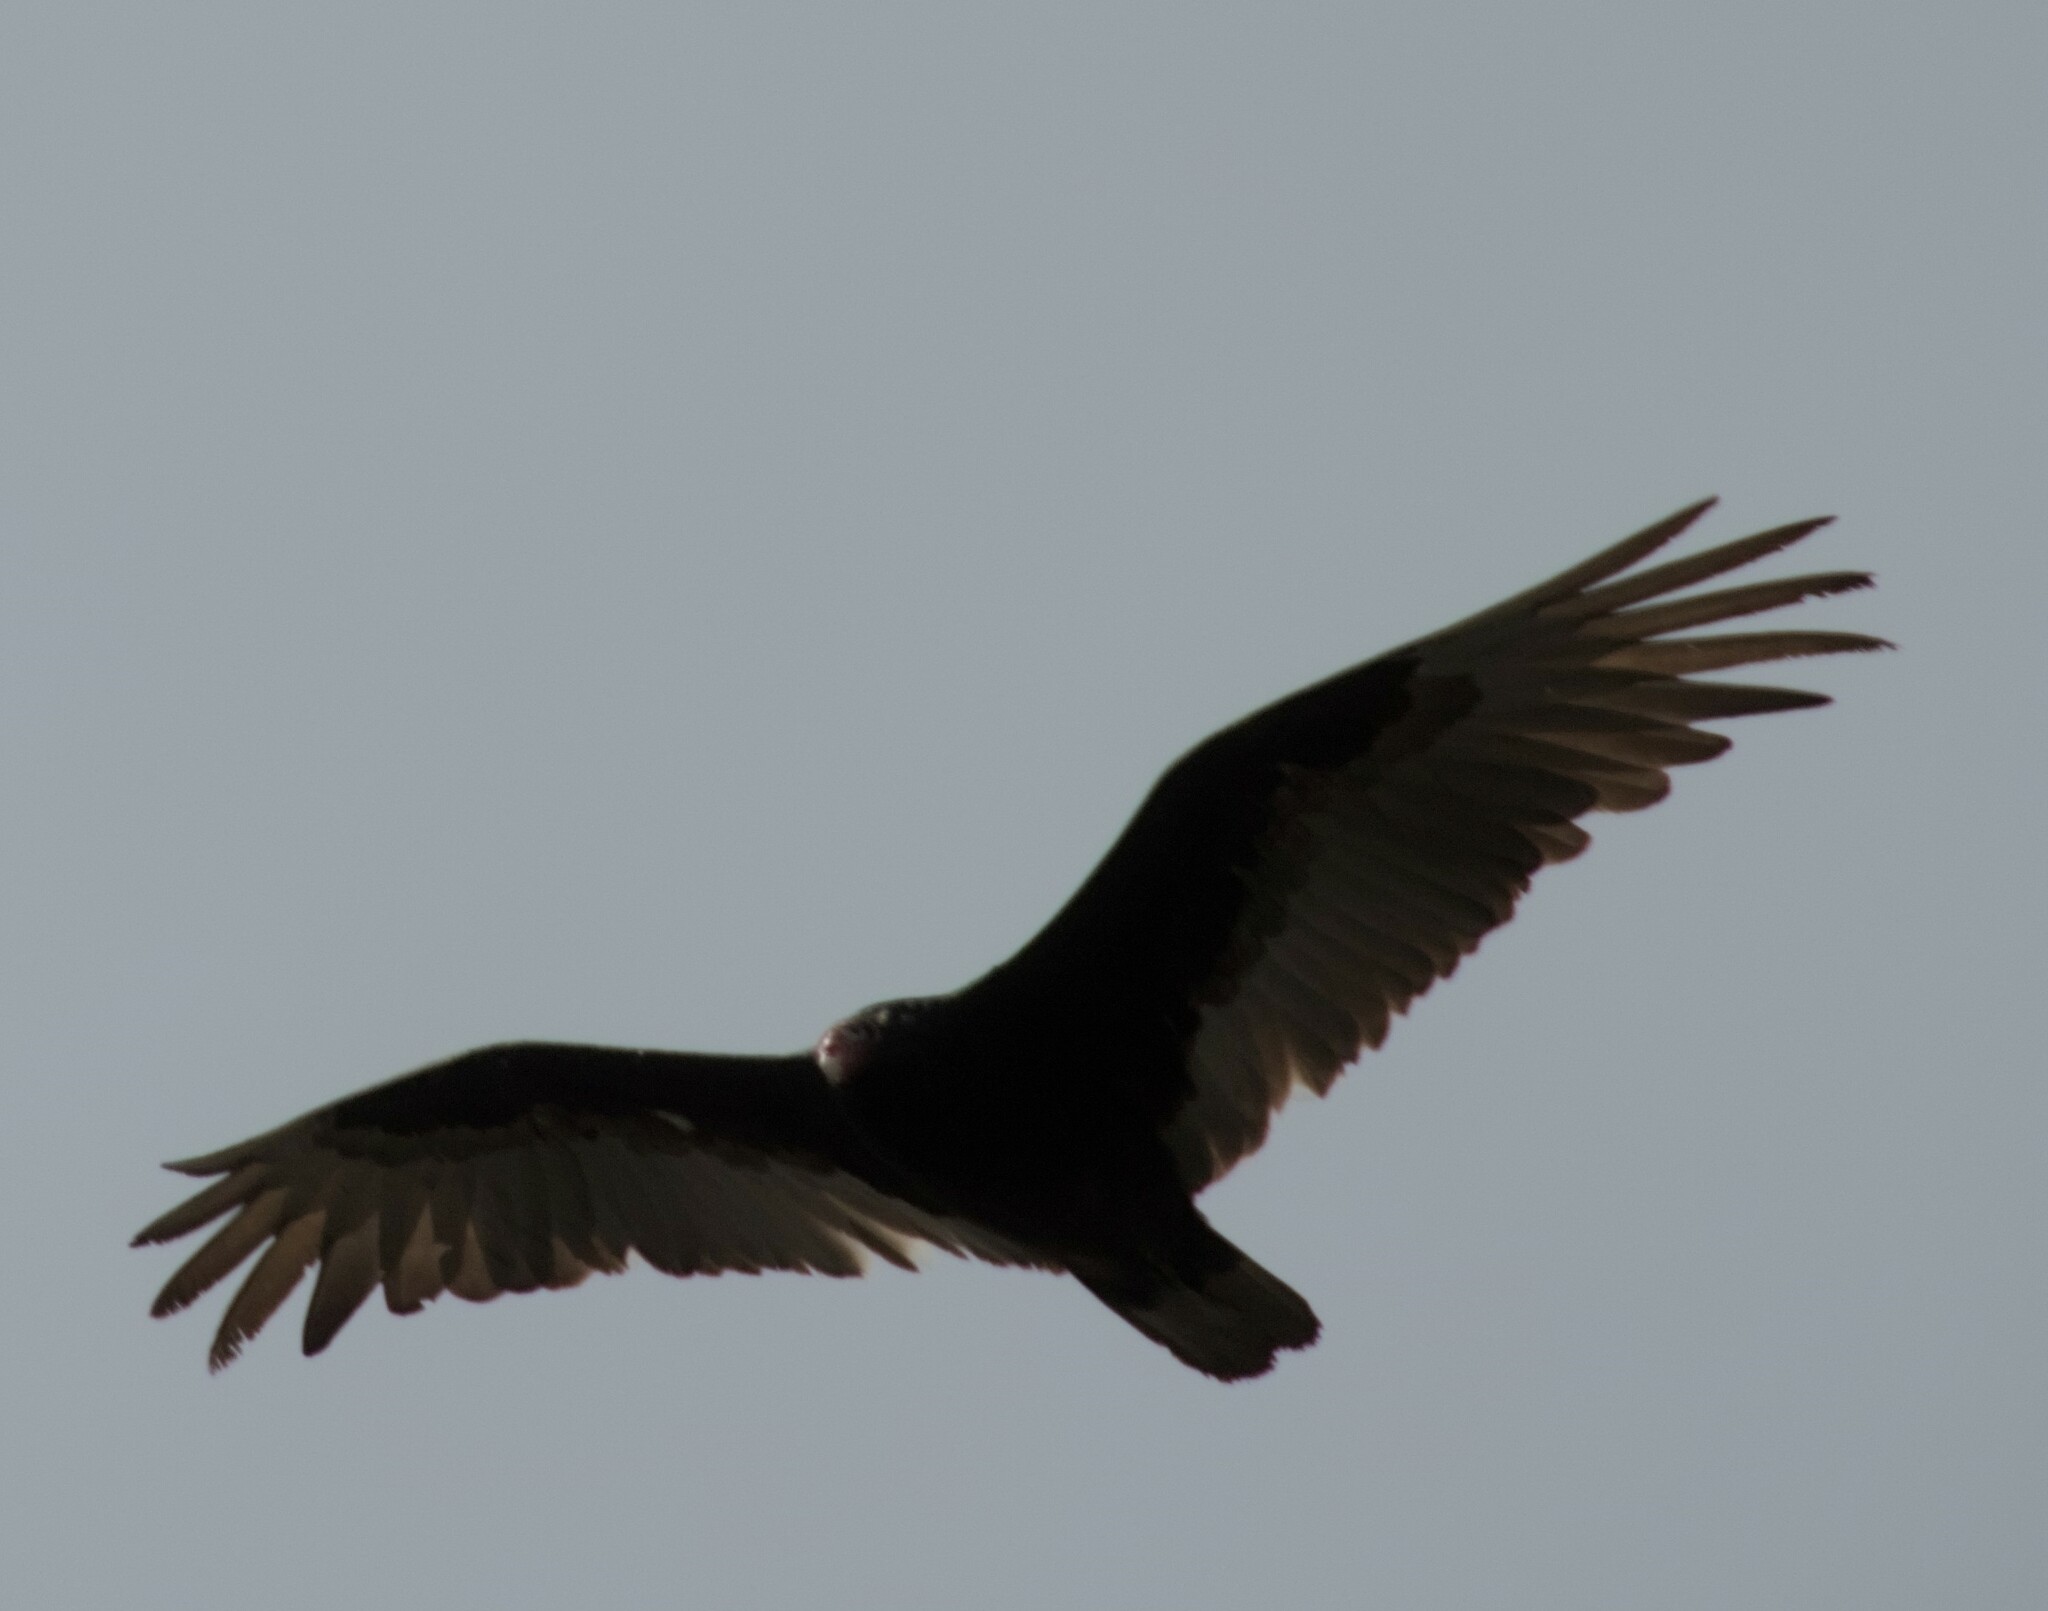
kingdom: Animalia
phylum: Chordata
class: Aves
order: Accipitriformes
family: Cathartidae
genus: Cathartes
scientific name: Cathartes aura
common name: Turkey vulture
